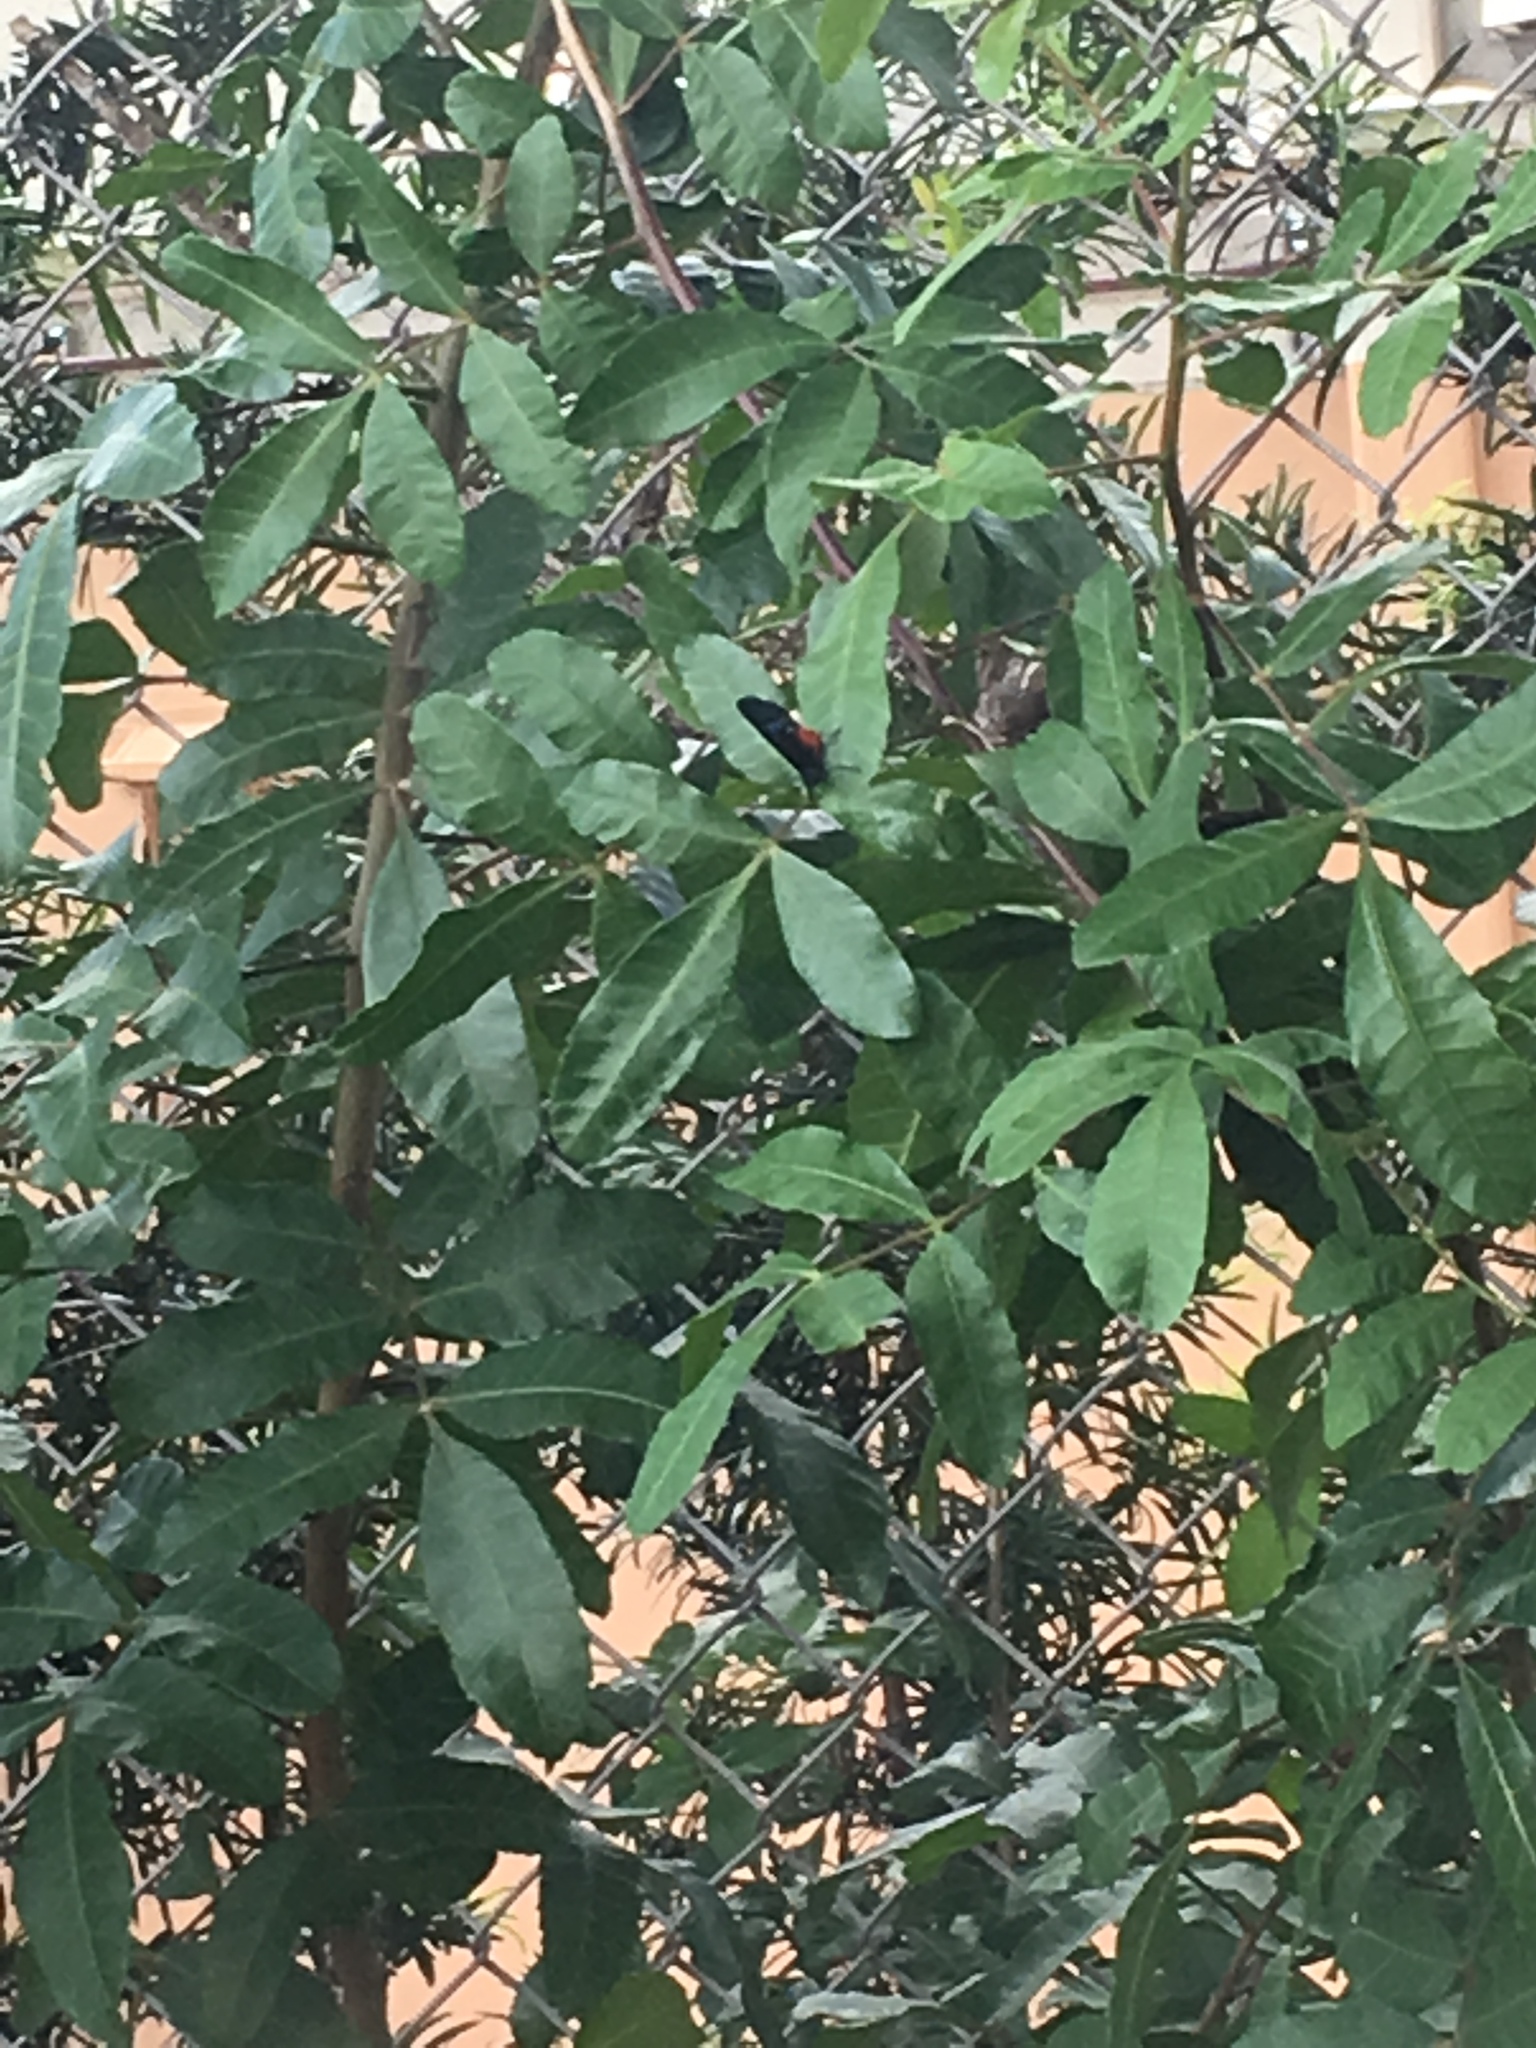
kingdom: Animalia
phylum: Arthropoda
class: Insecta
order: Lepidoptera
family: Lycaenidae
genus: Eumaeus
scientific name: Eumaeus atala
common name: Atala
